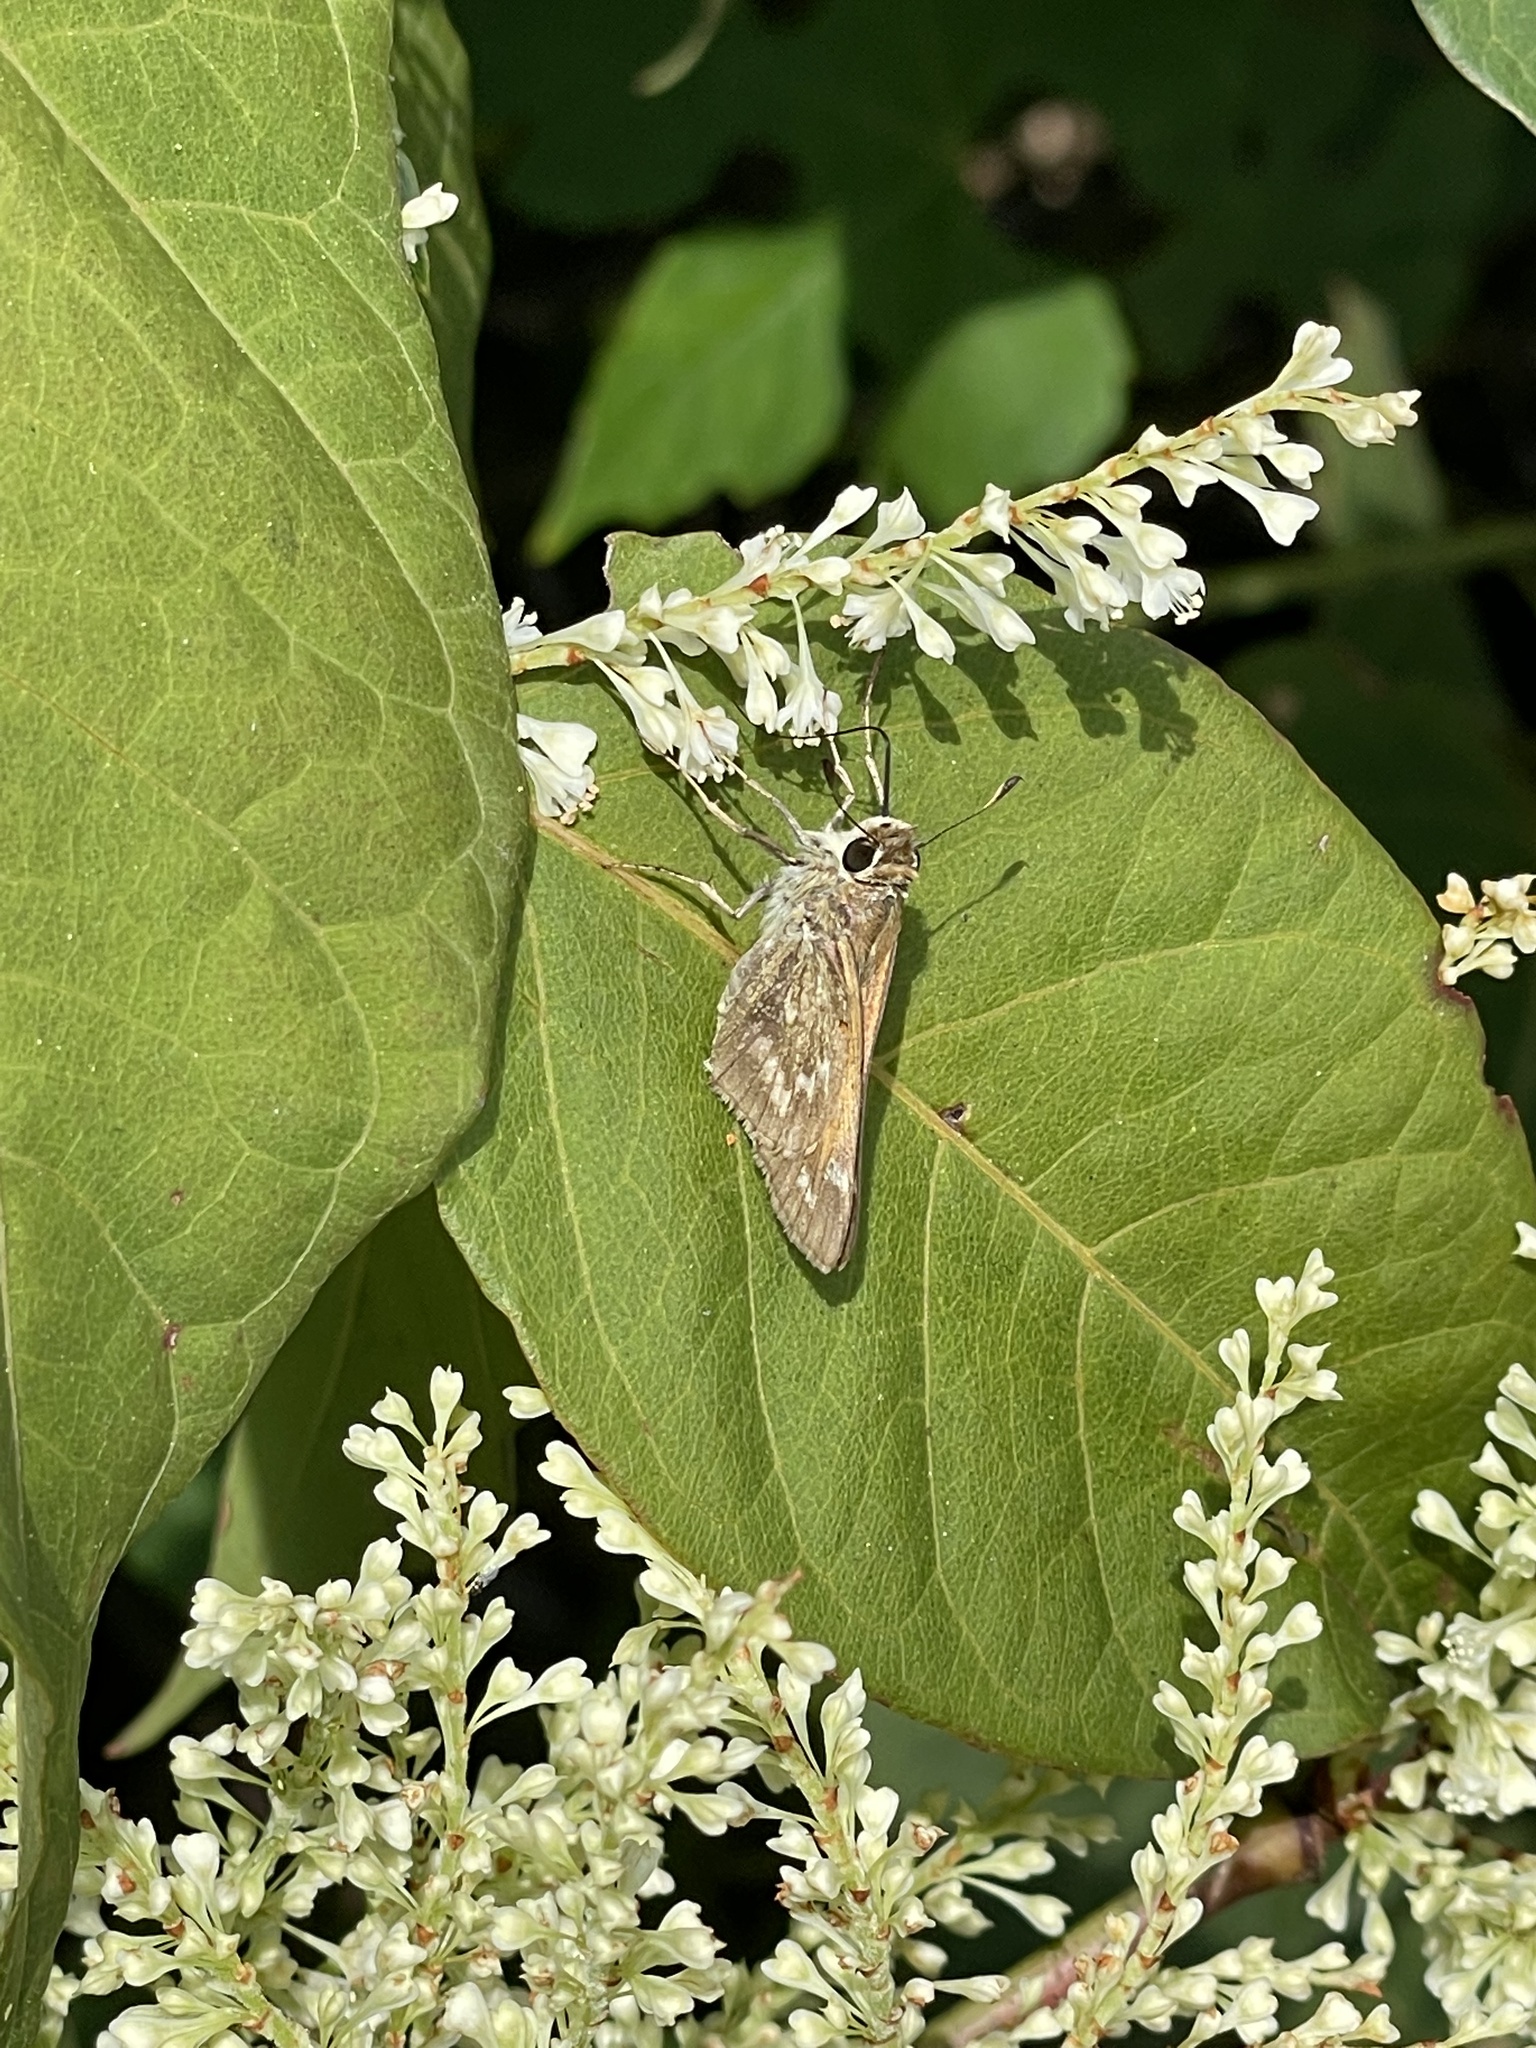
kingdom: Animalia
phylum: Arthropoda
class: Insecta
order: Lepidoptera
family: Hesperiidae
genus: Atalopedes
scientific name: Atalopedes
